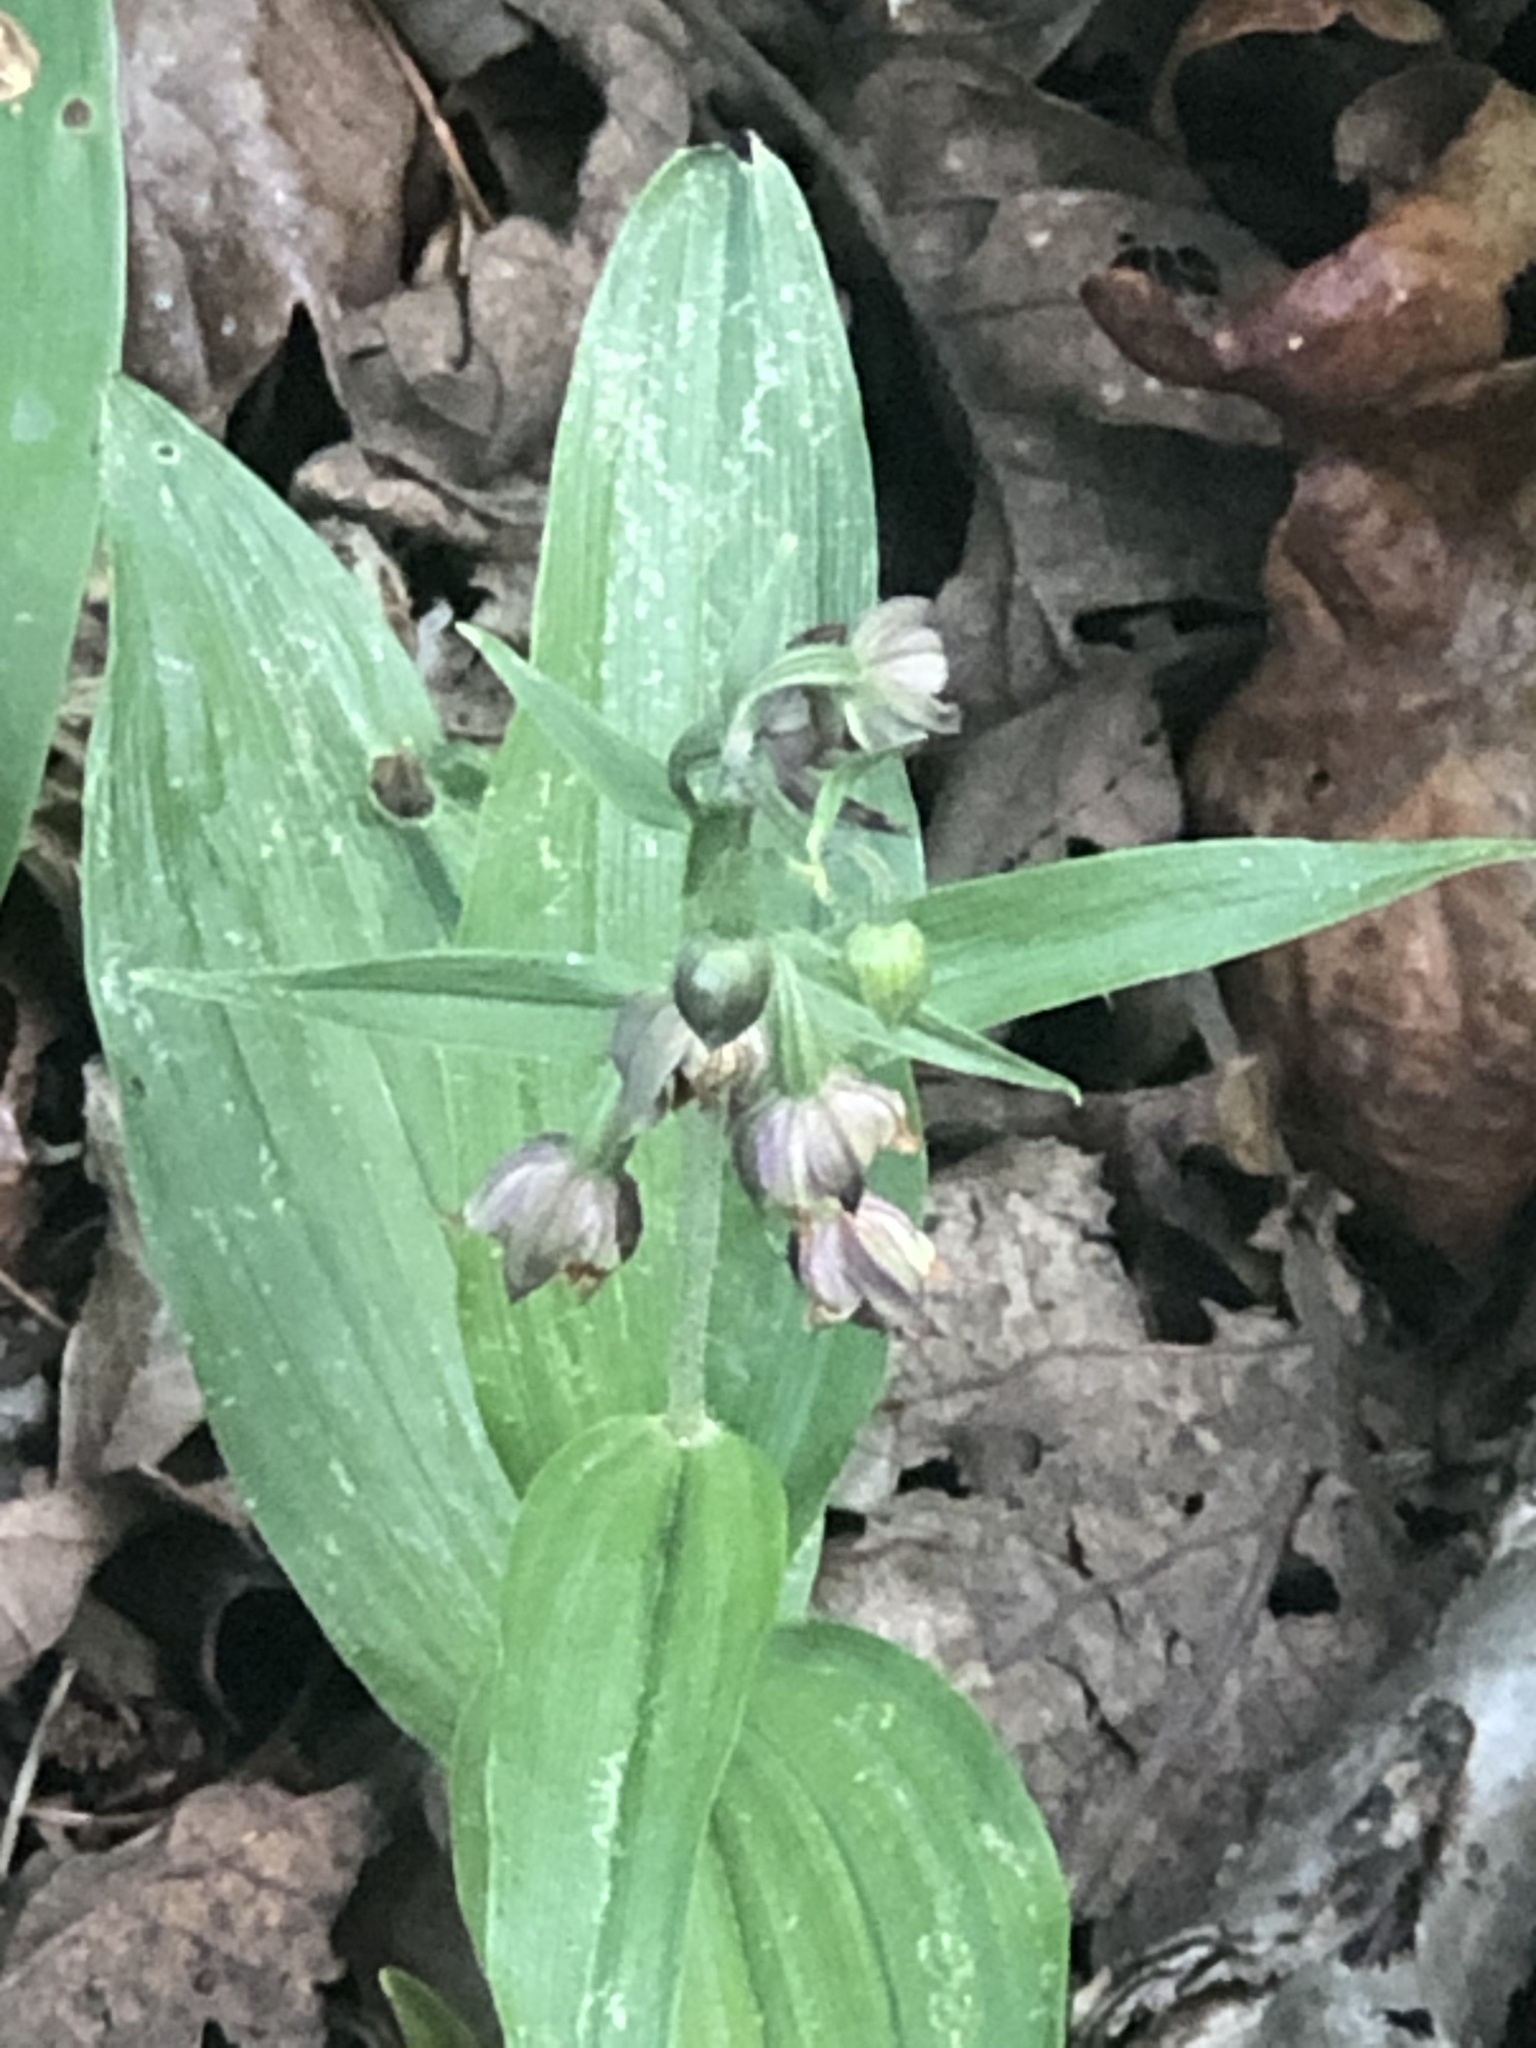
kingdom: Plantae
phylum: Tracheophyta
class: Liliopsida
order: Asparagales
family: Orchidaceae
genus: Epipactis
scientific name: Epipactis helleborine
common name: Broad-leaved helleborine
